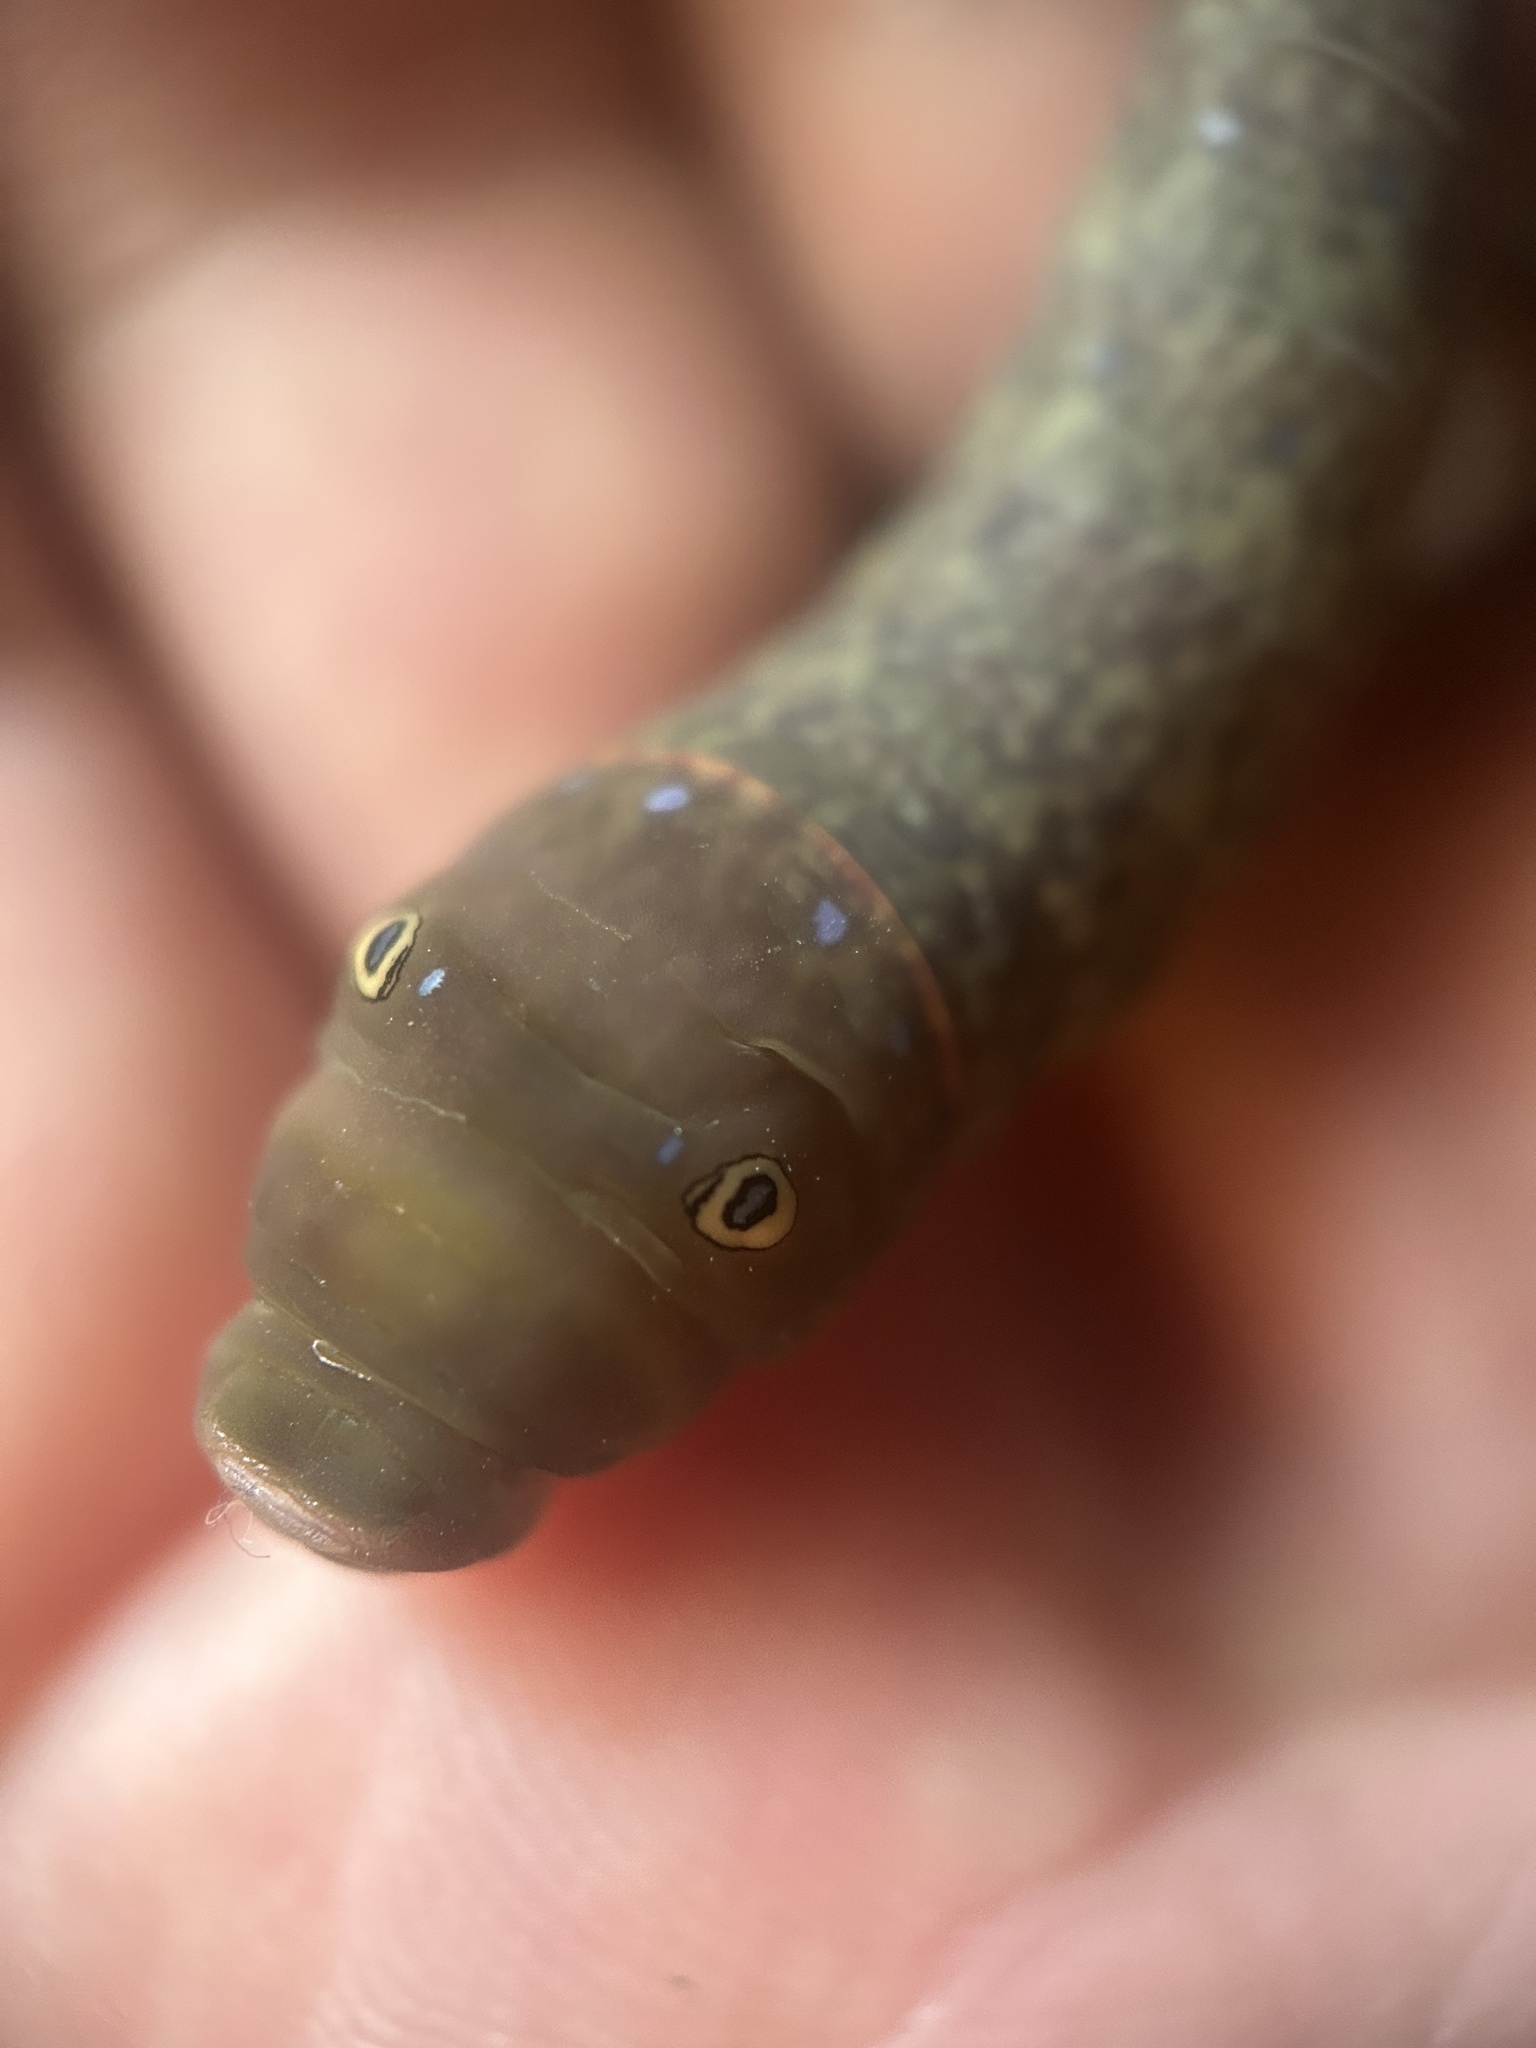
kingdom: Animalia
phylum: Arthropoda
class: Insecta
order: Lepidoptera
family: Papilionidae
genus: Papilio
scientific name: Papilio glaucus
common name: Tiger swallowtail
